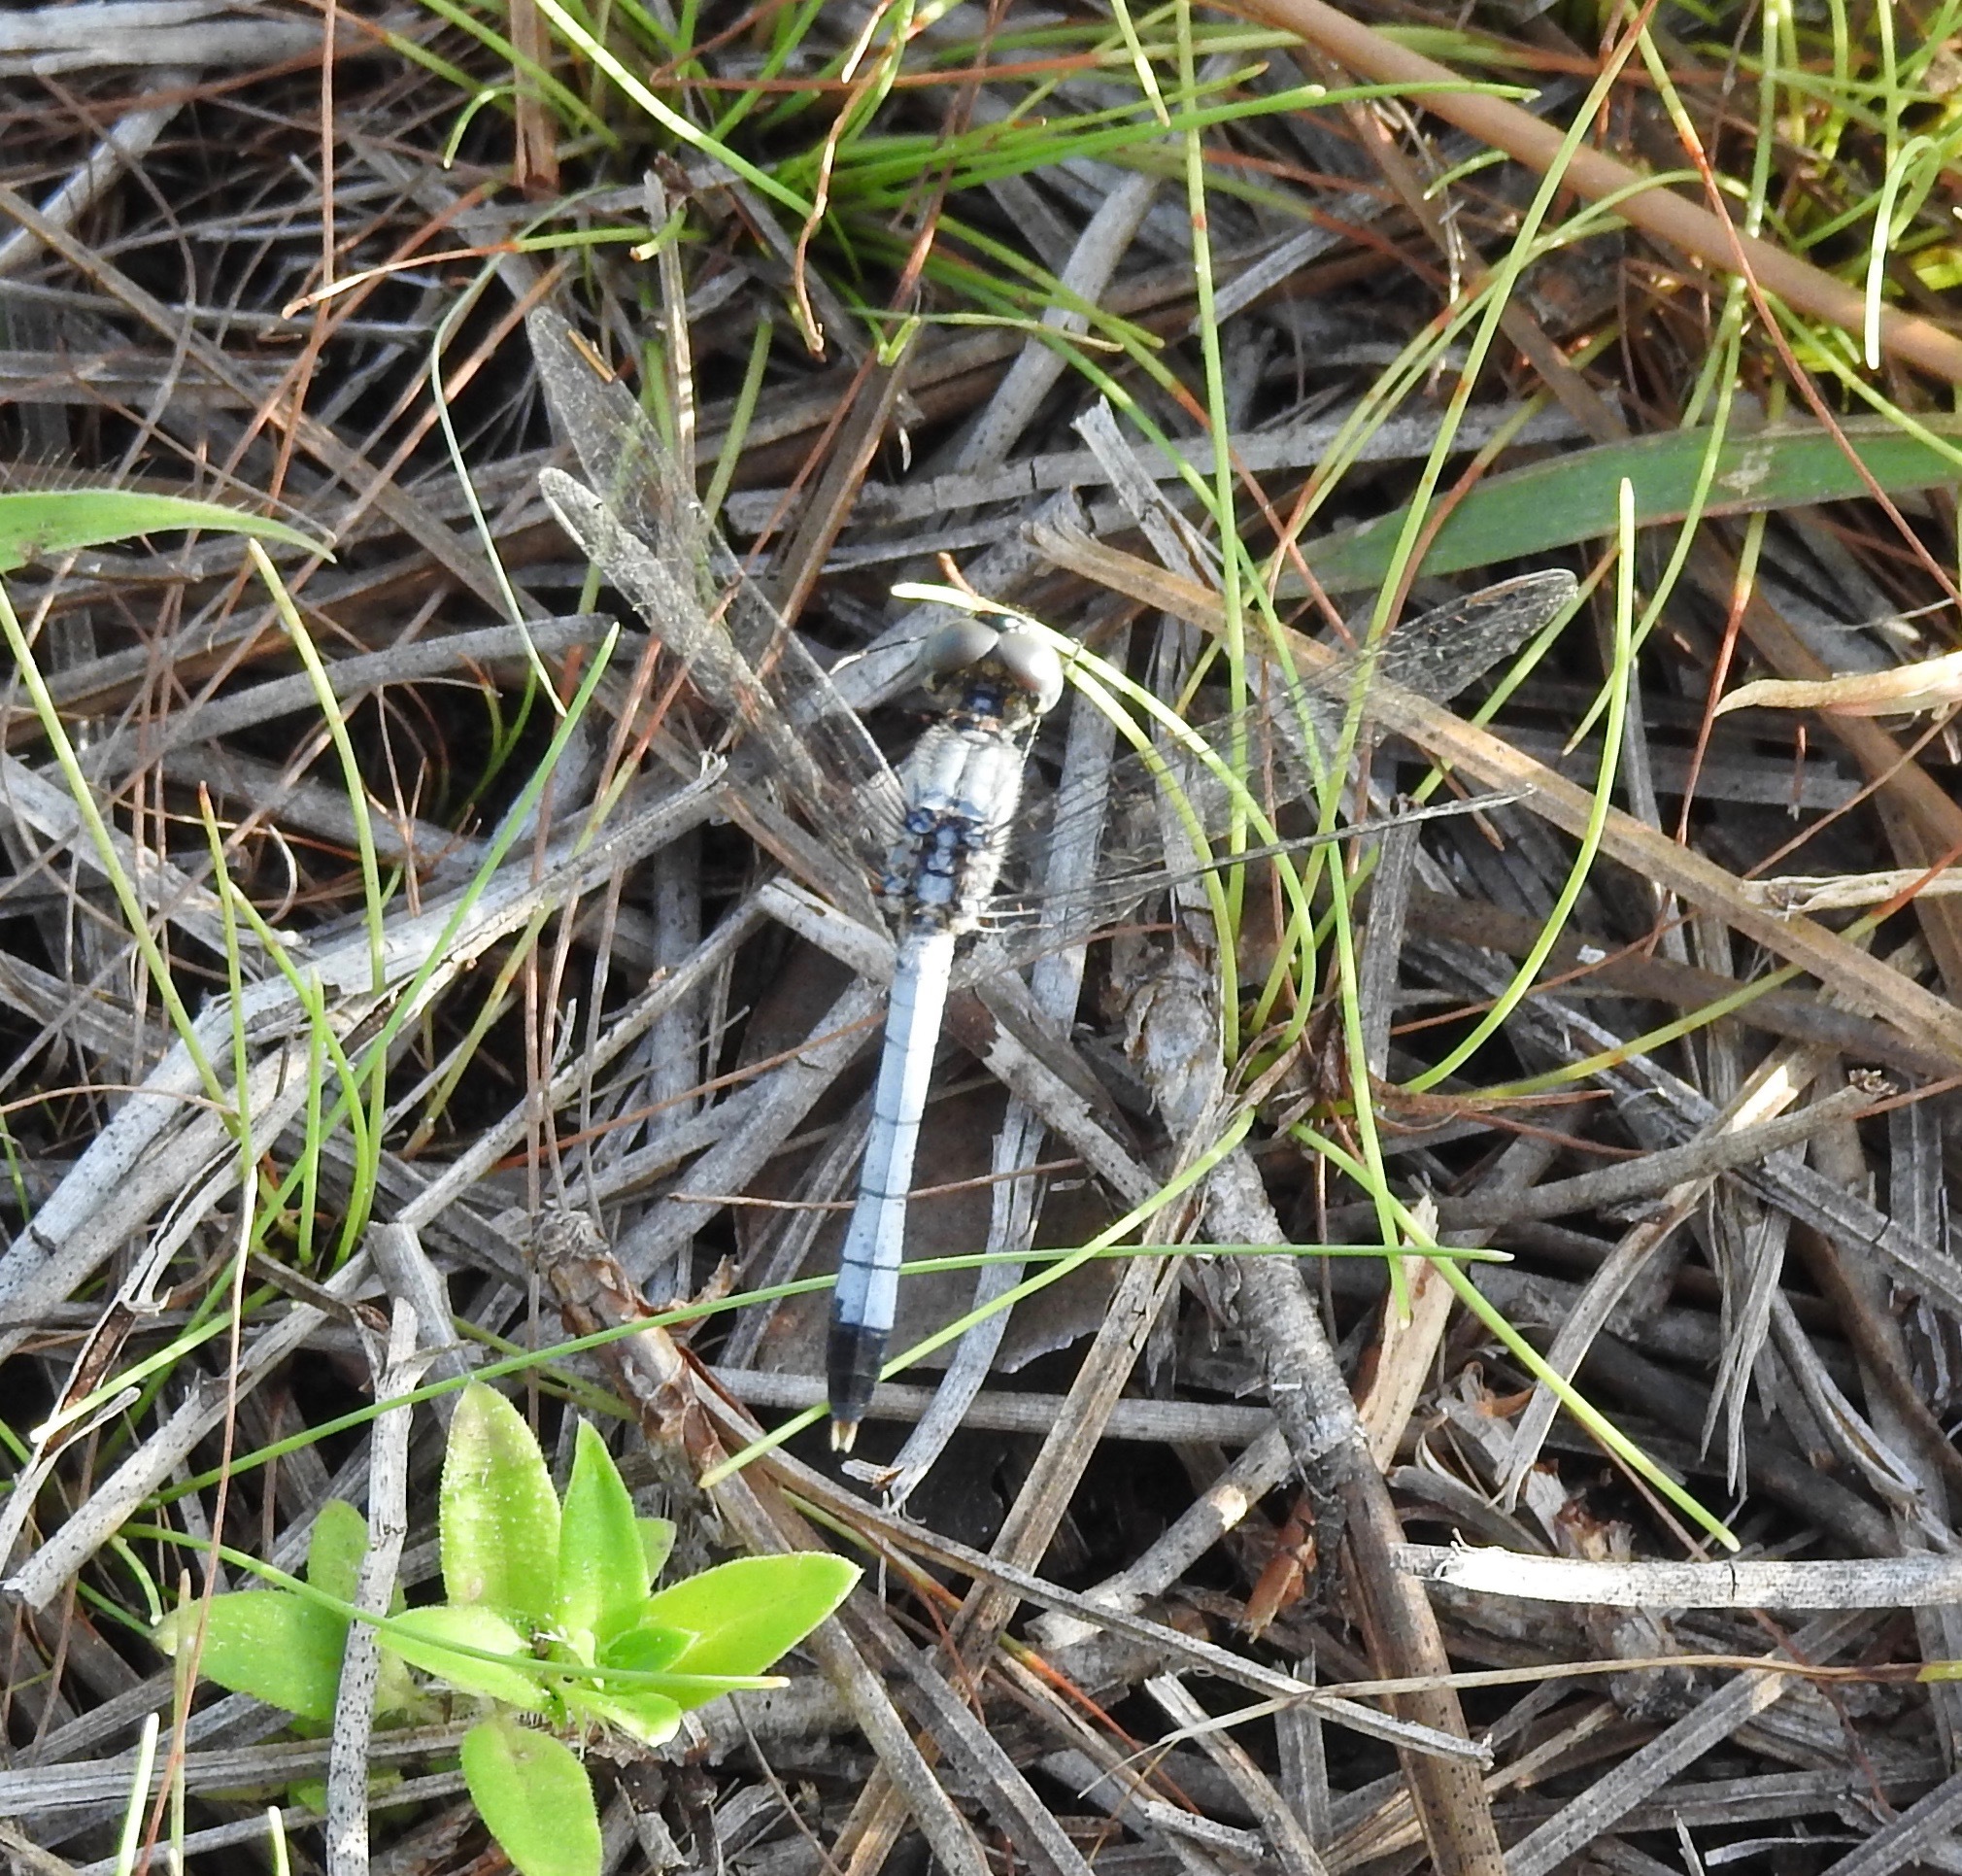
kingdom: Animalia
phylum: Arthropoda
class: Insecta
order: Odonata
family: Libellulidae
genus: Erythrodiplax
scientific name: Erythrodiplax minuscula
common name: Little blue dragonlet
